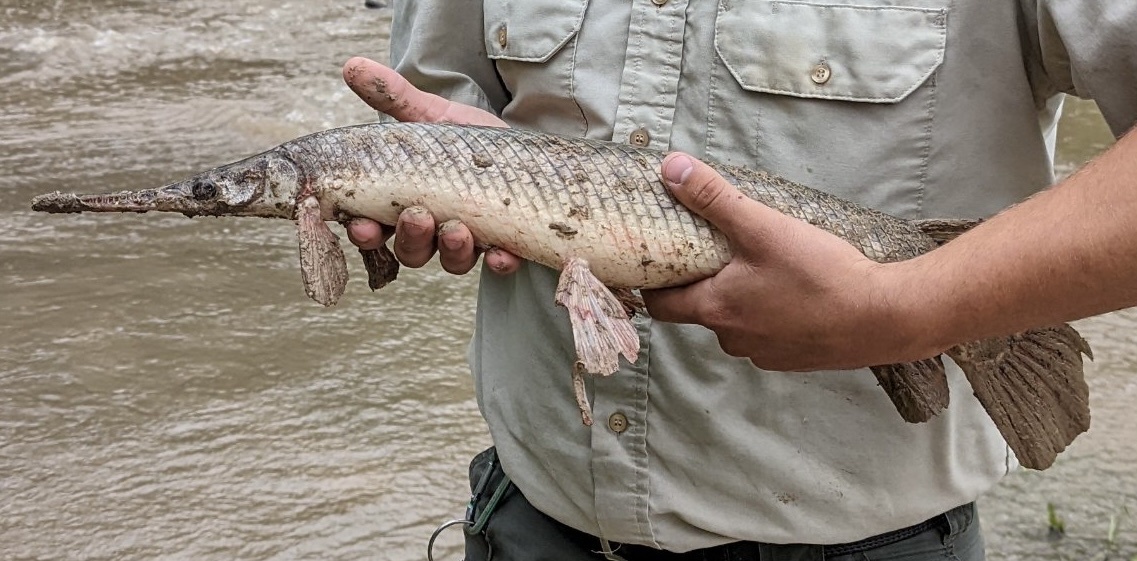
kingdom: Animalia
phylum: Chordata
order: Lepisosteiformes
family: Lepisosteidae
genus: Lepisosteus
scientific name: Lepisosteus oculatus
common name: Spotted gar
